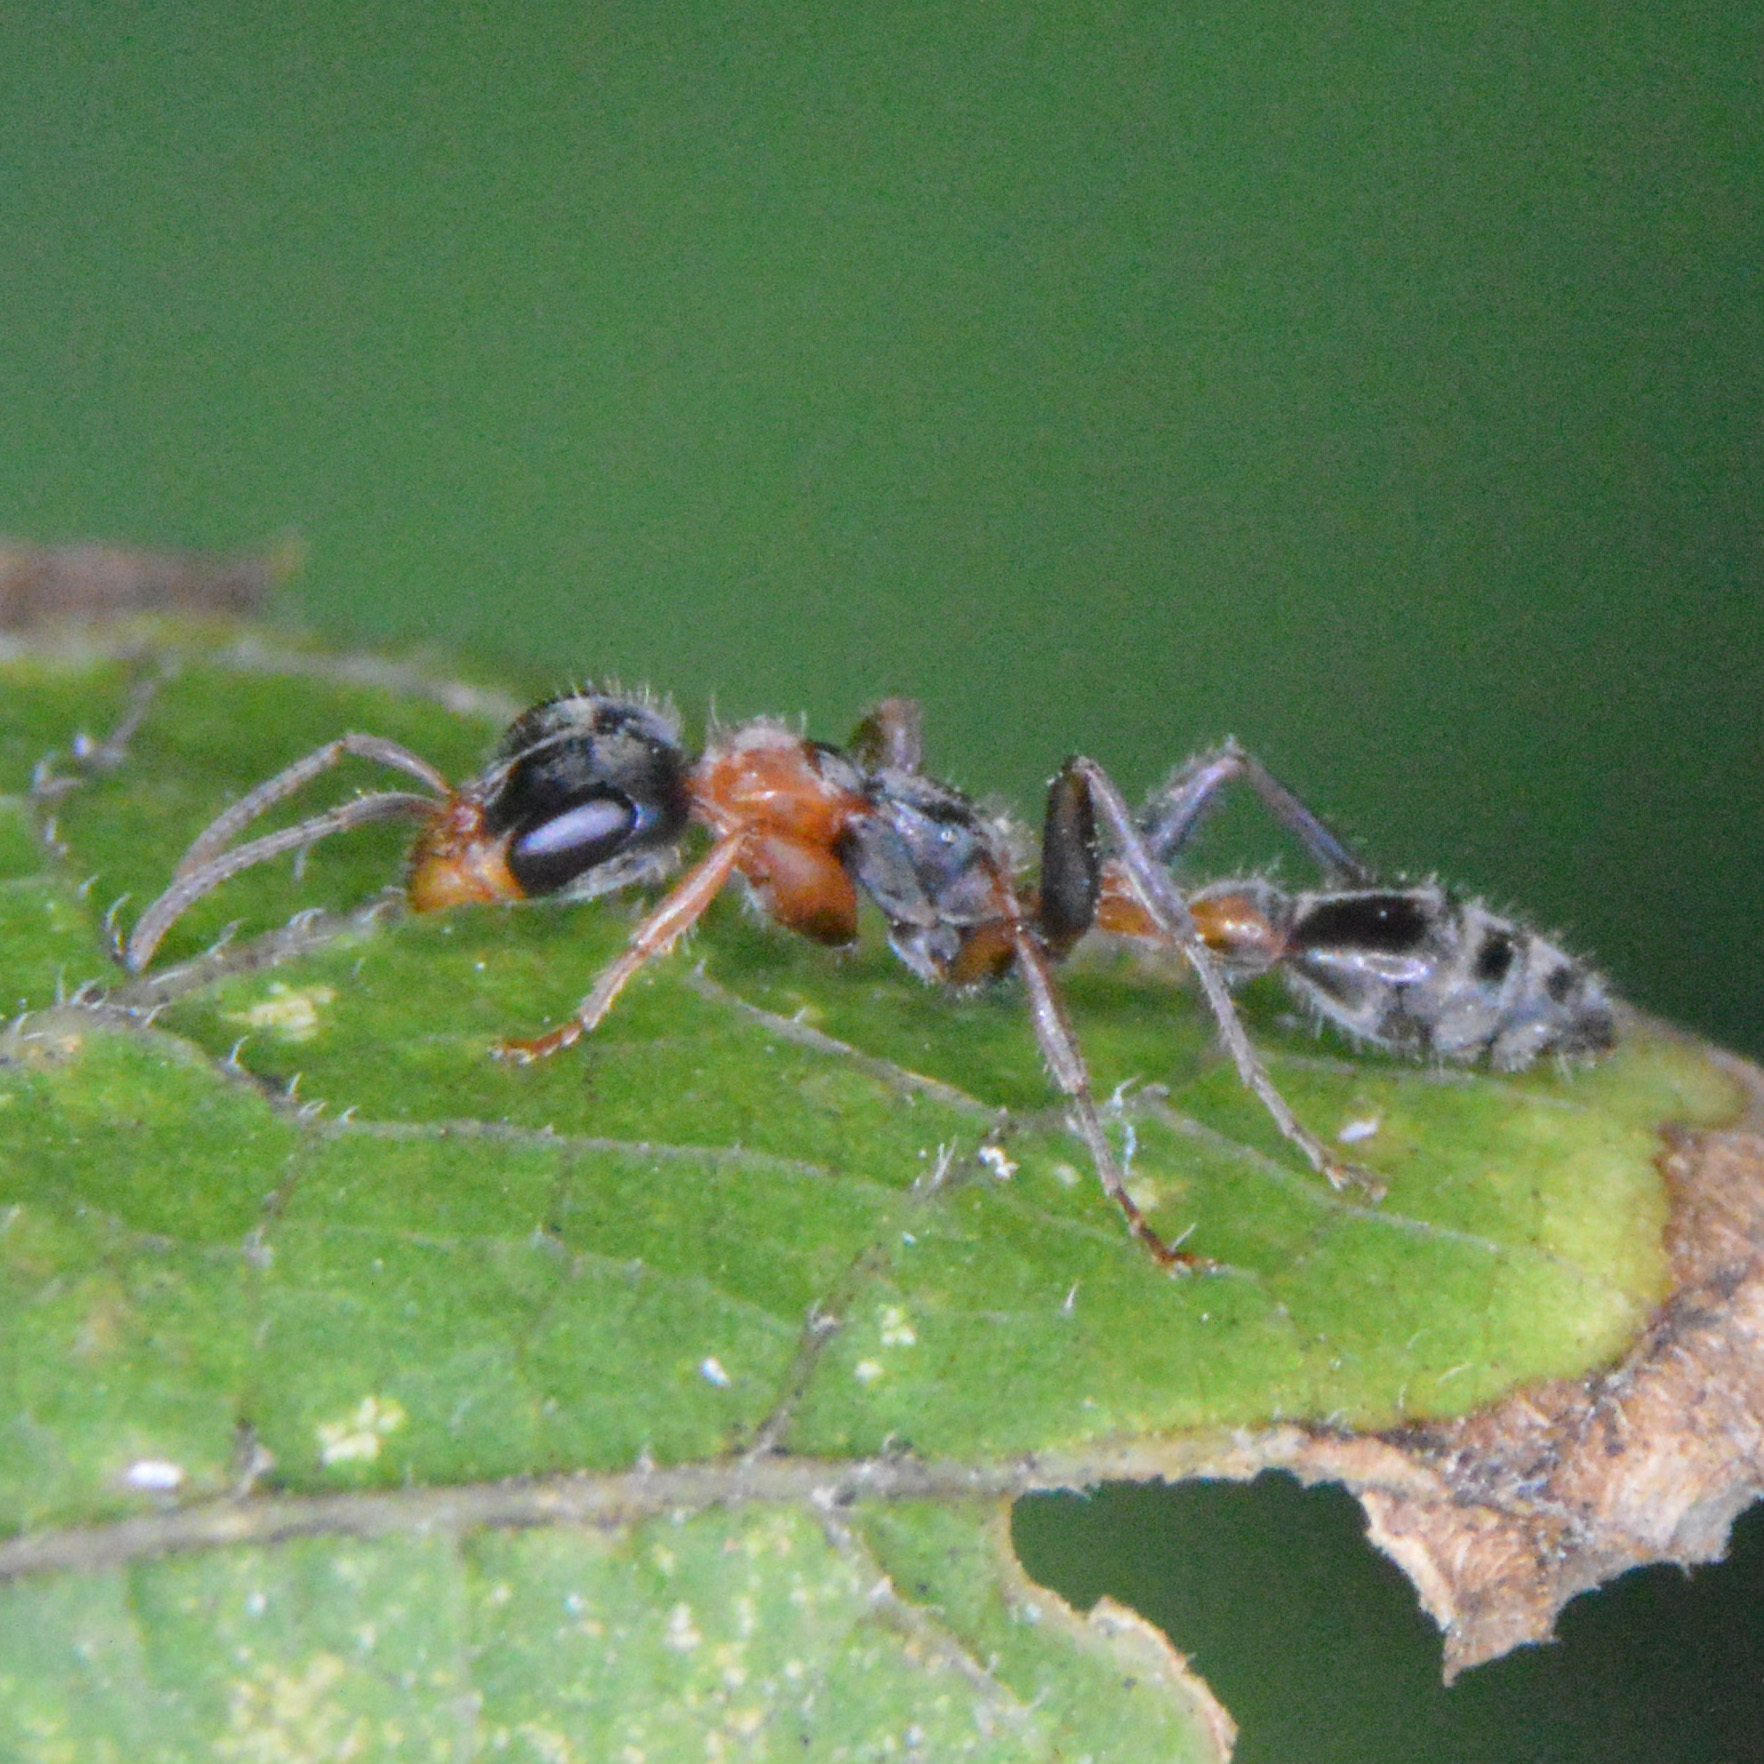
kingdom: Animalia
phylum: Arthropoda
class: Insecta
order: Hymenoptera
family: Formicidae
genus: Pseudomyrmex
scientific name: Pseudomyrmex gracilis
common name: Graceful twig ant
